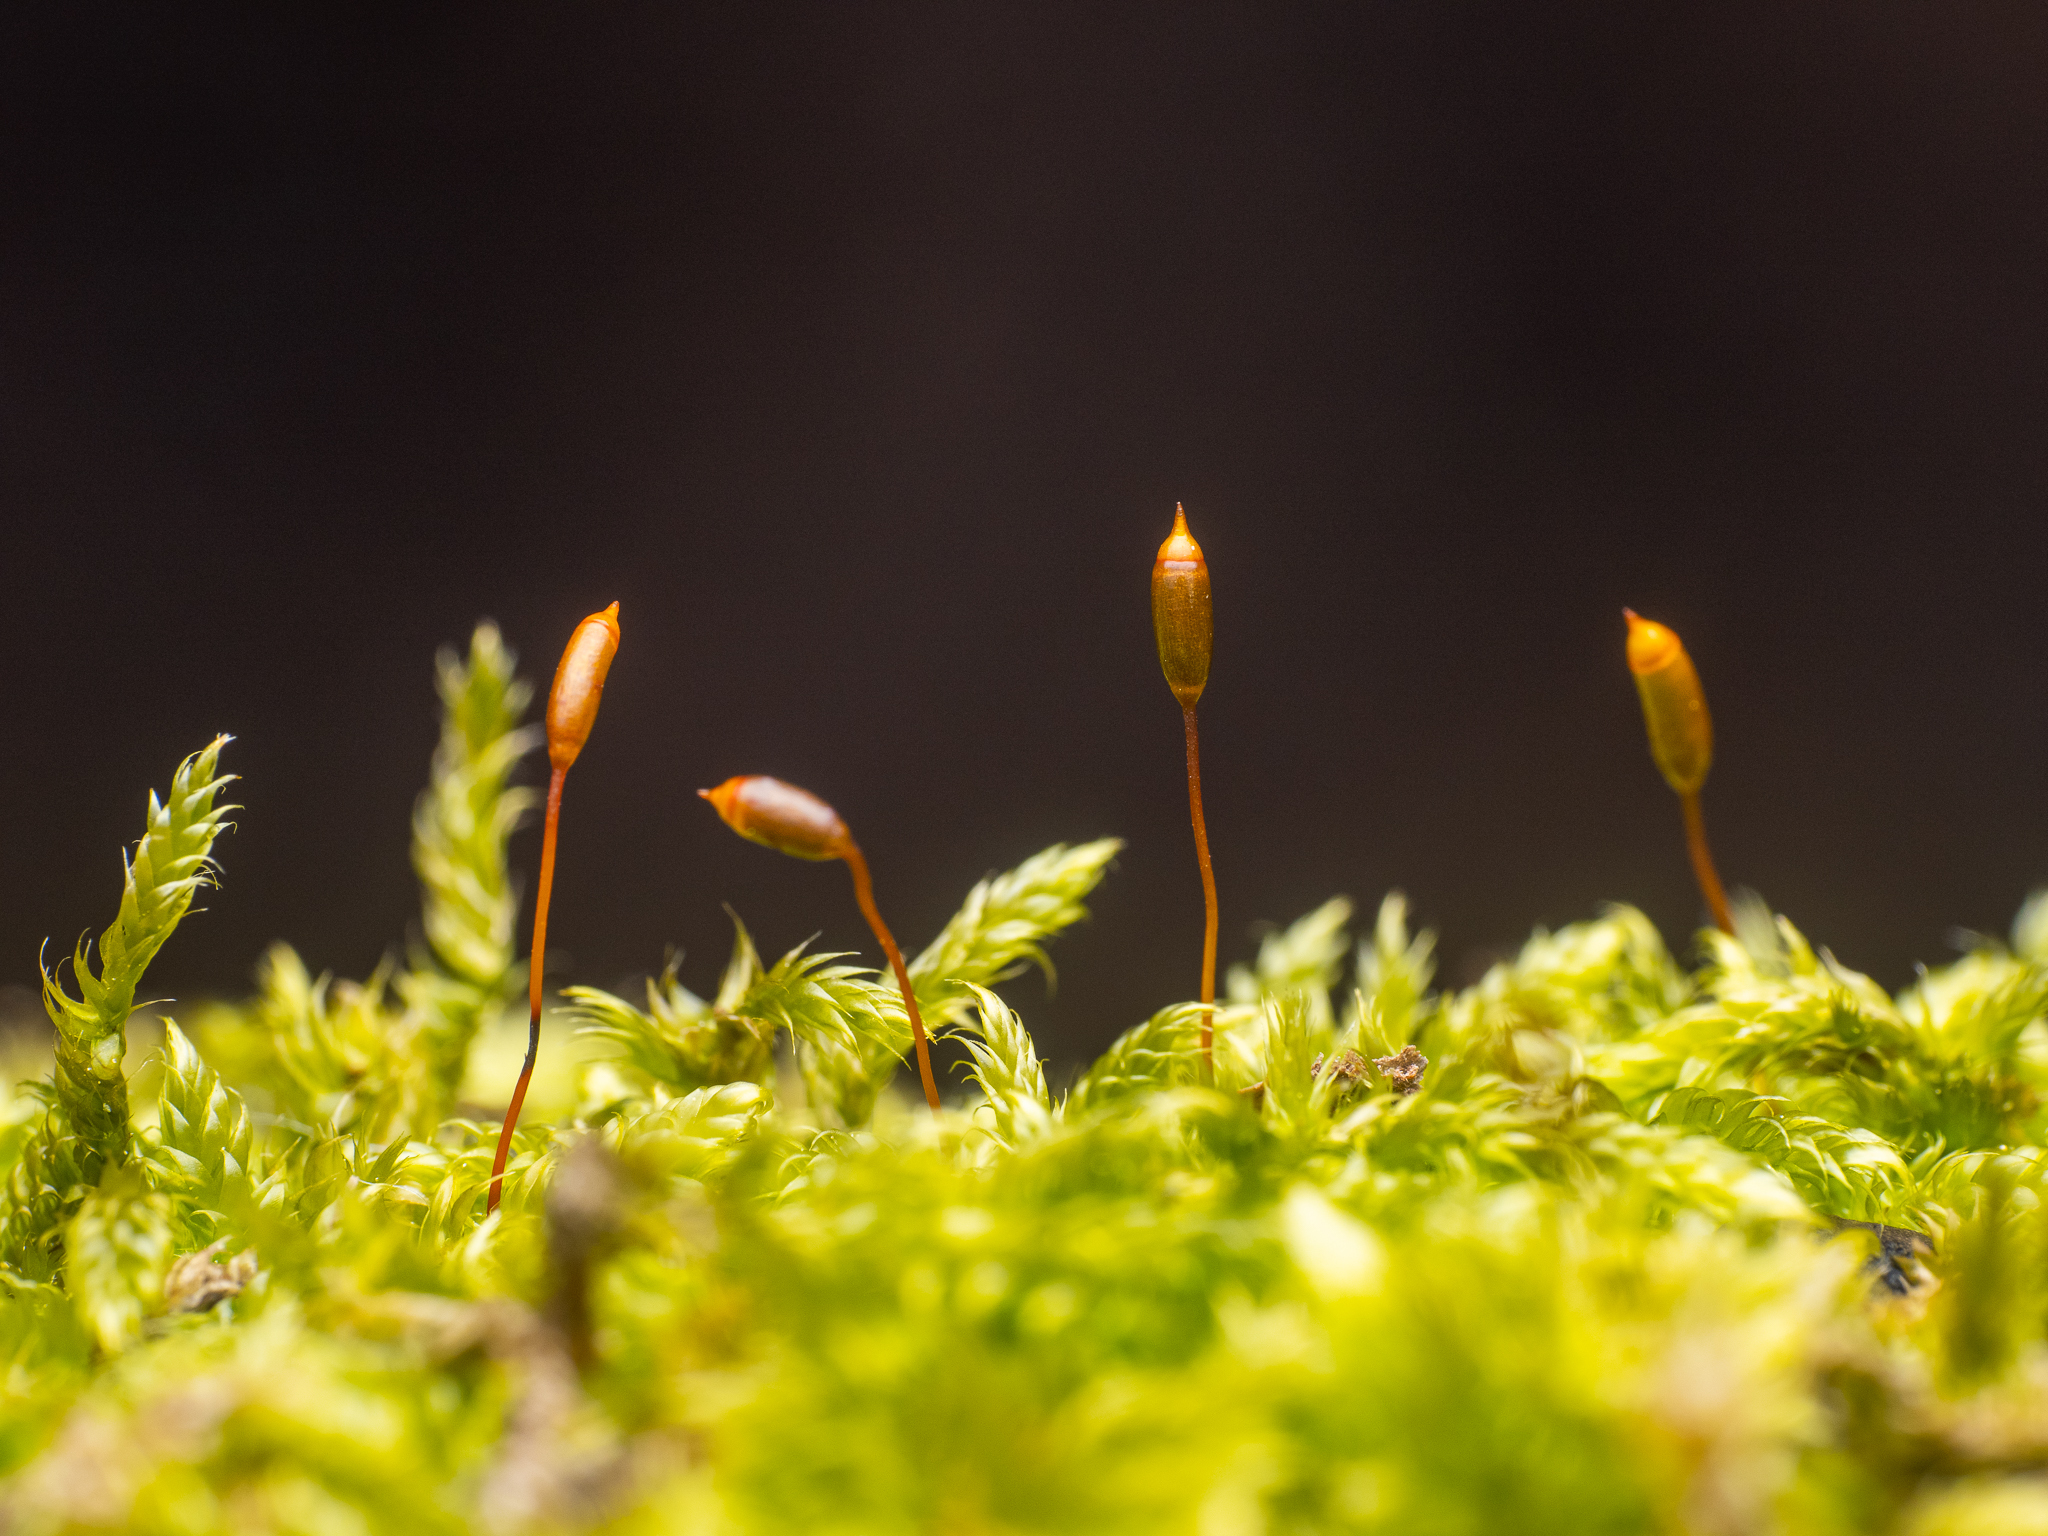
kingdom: Plantae
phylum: Bryophyta
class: Bryopsida
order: Hypnales
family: Hypnaceae
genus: Hypnum
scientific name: Hypnum cupressiforme
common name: Cypress-leaved plait-moss
